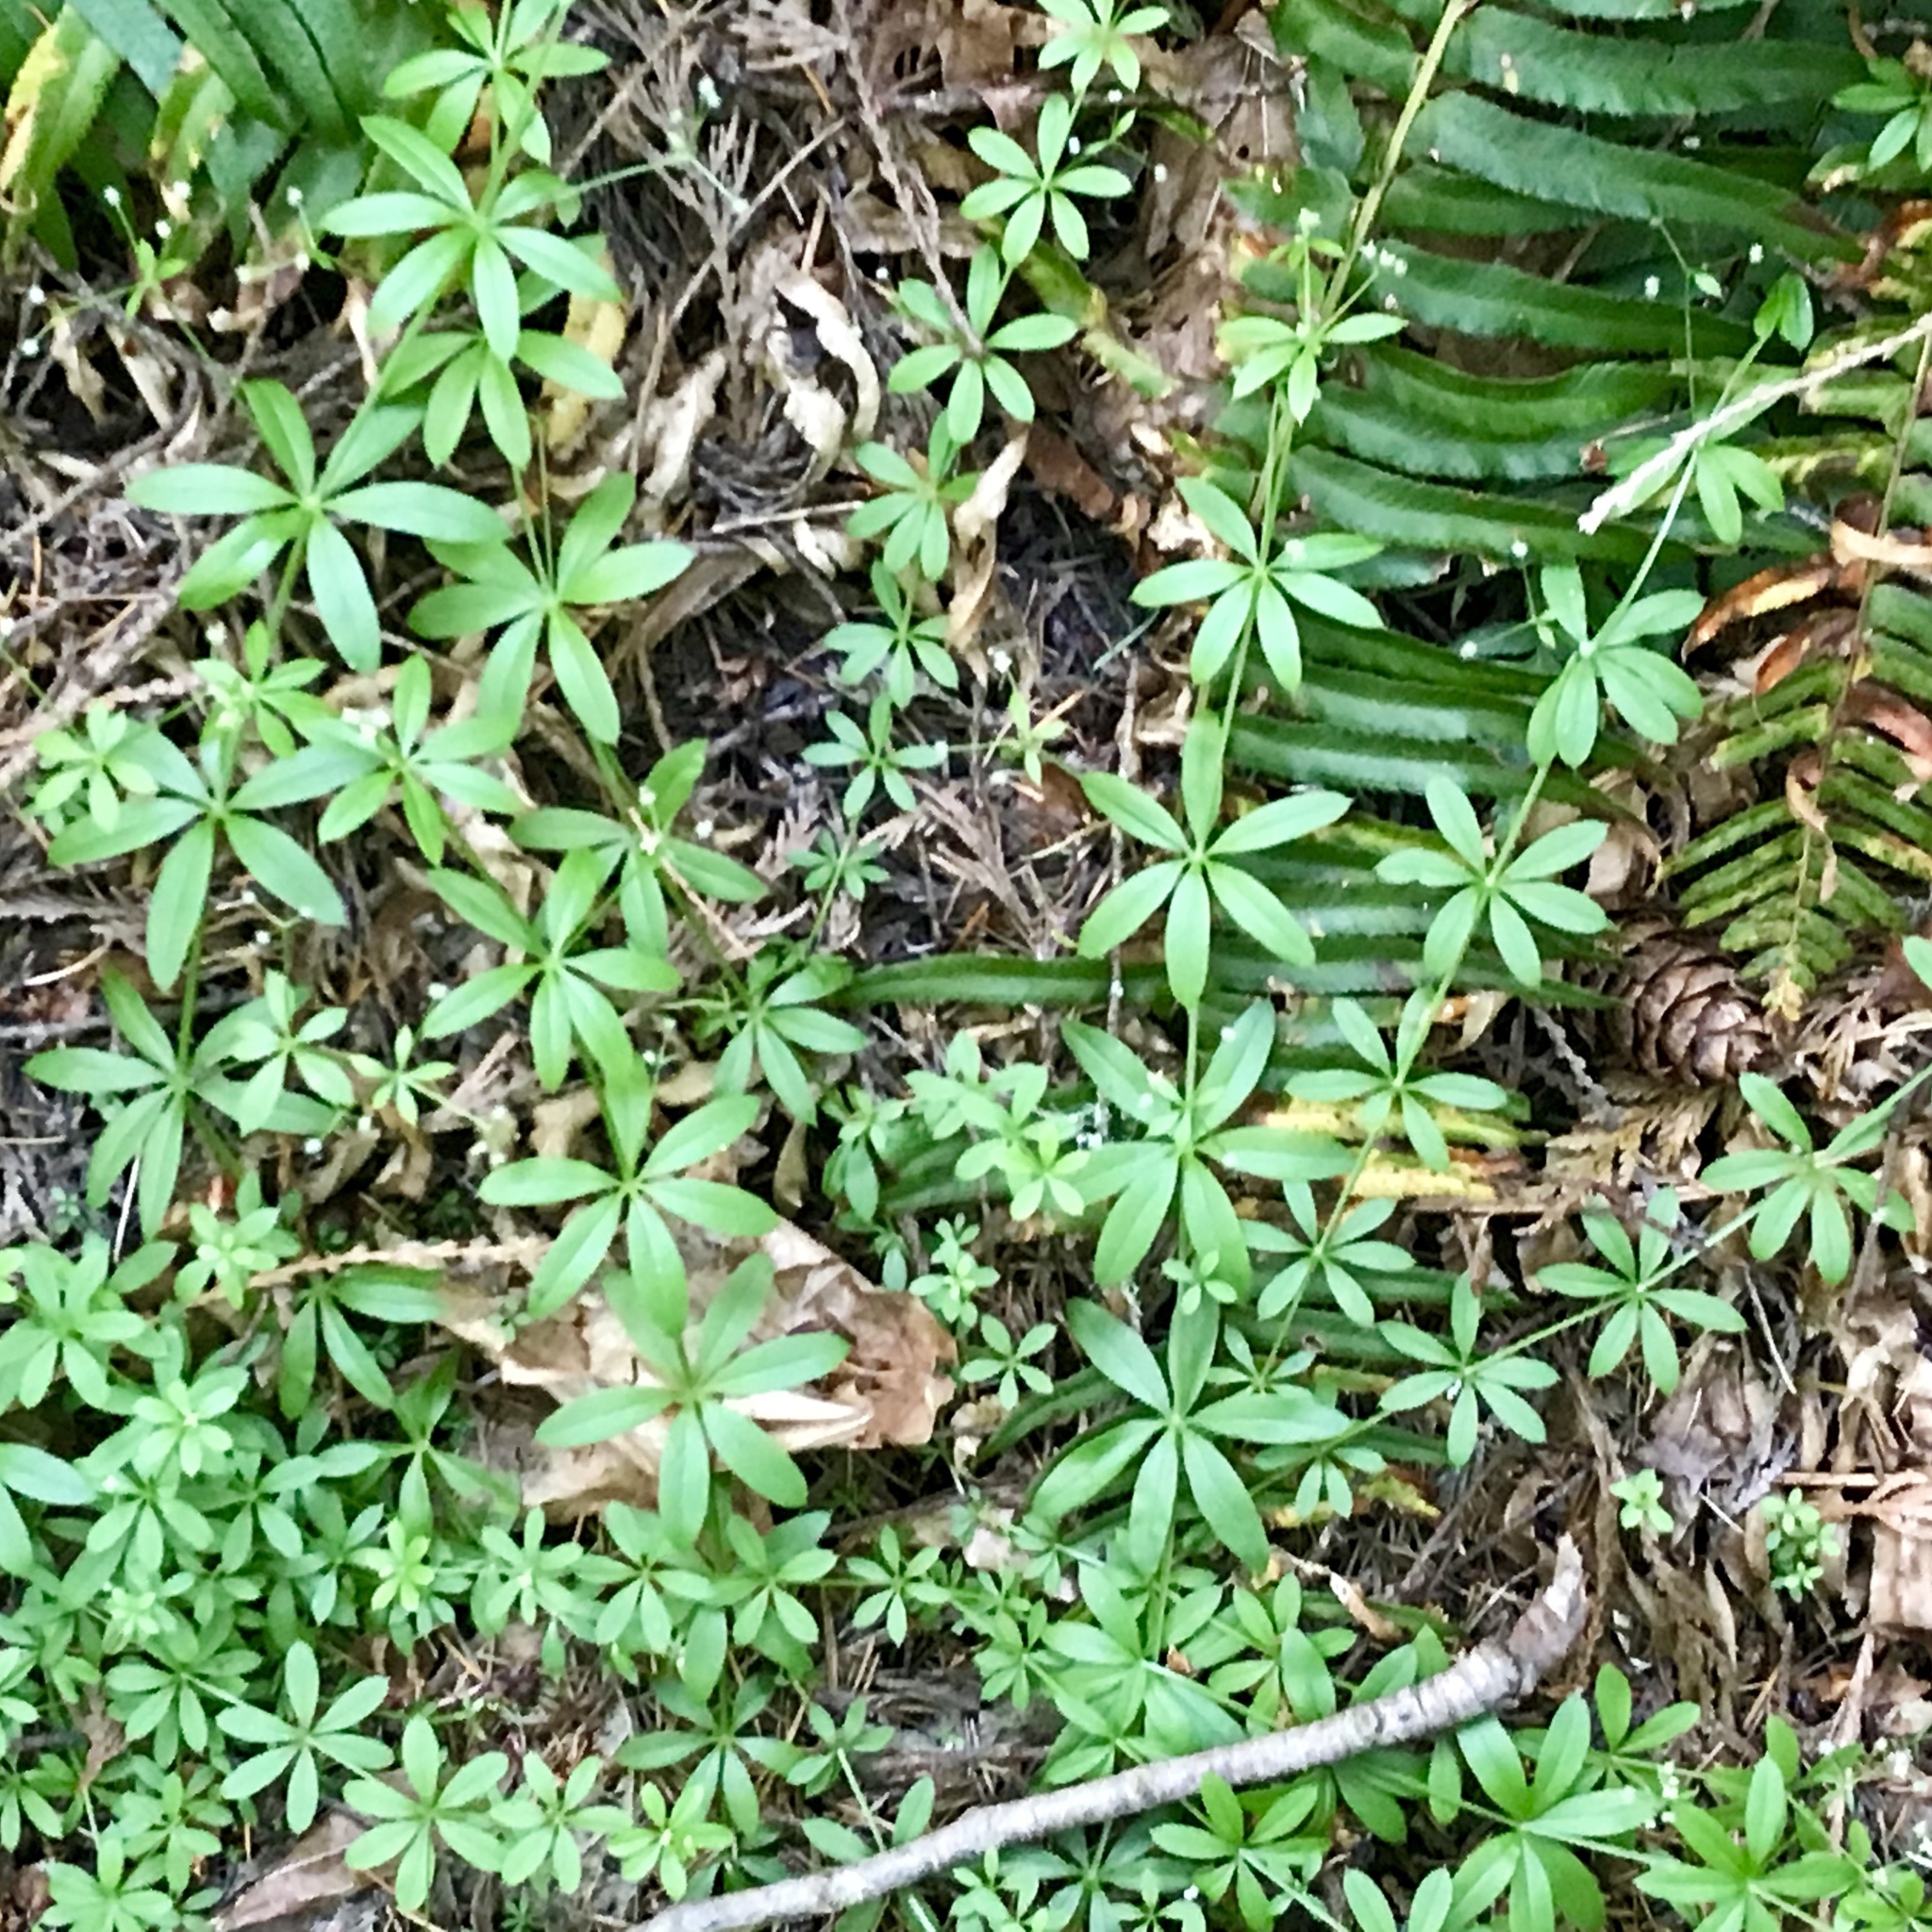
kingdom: Plantae
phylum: Tracheophyta
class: Magnoliopsida
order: Gentianales
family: Rubiaceae
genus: Galium
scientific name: Galium triflorum
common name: Fragrant bedstraw
